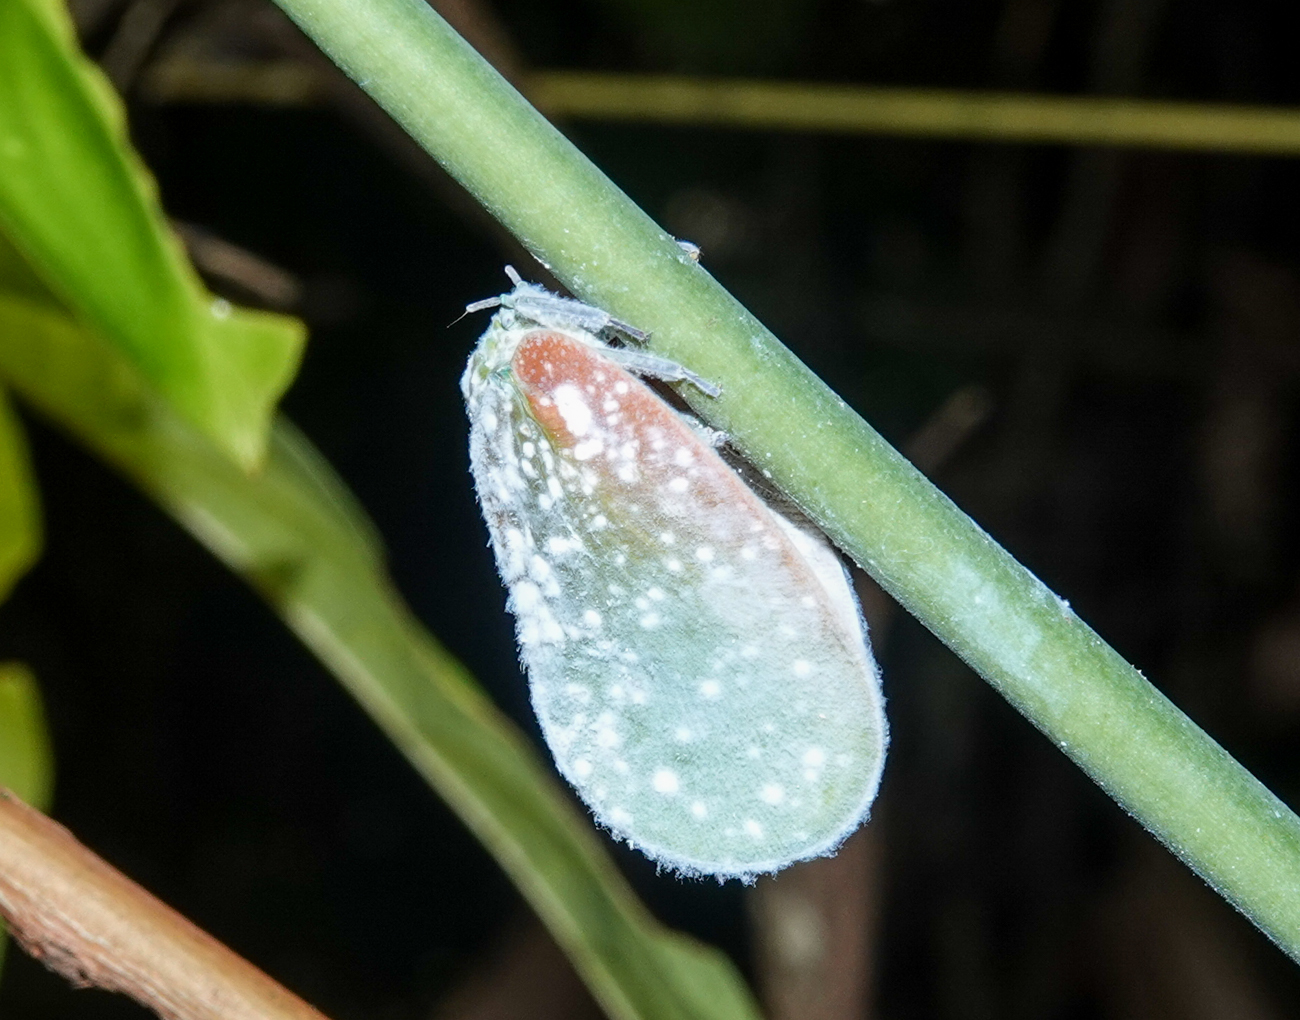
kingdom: Animalia
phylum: Arthropoda
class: Insecta
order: Hemiptera
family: Flatidae
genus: Flatida
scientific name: Flatida tricolor
